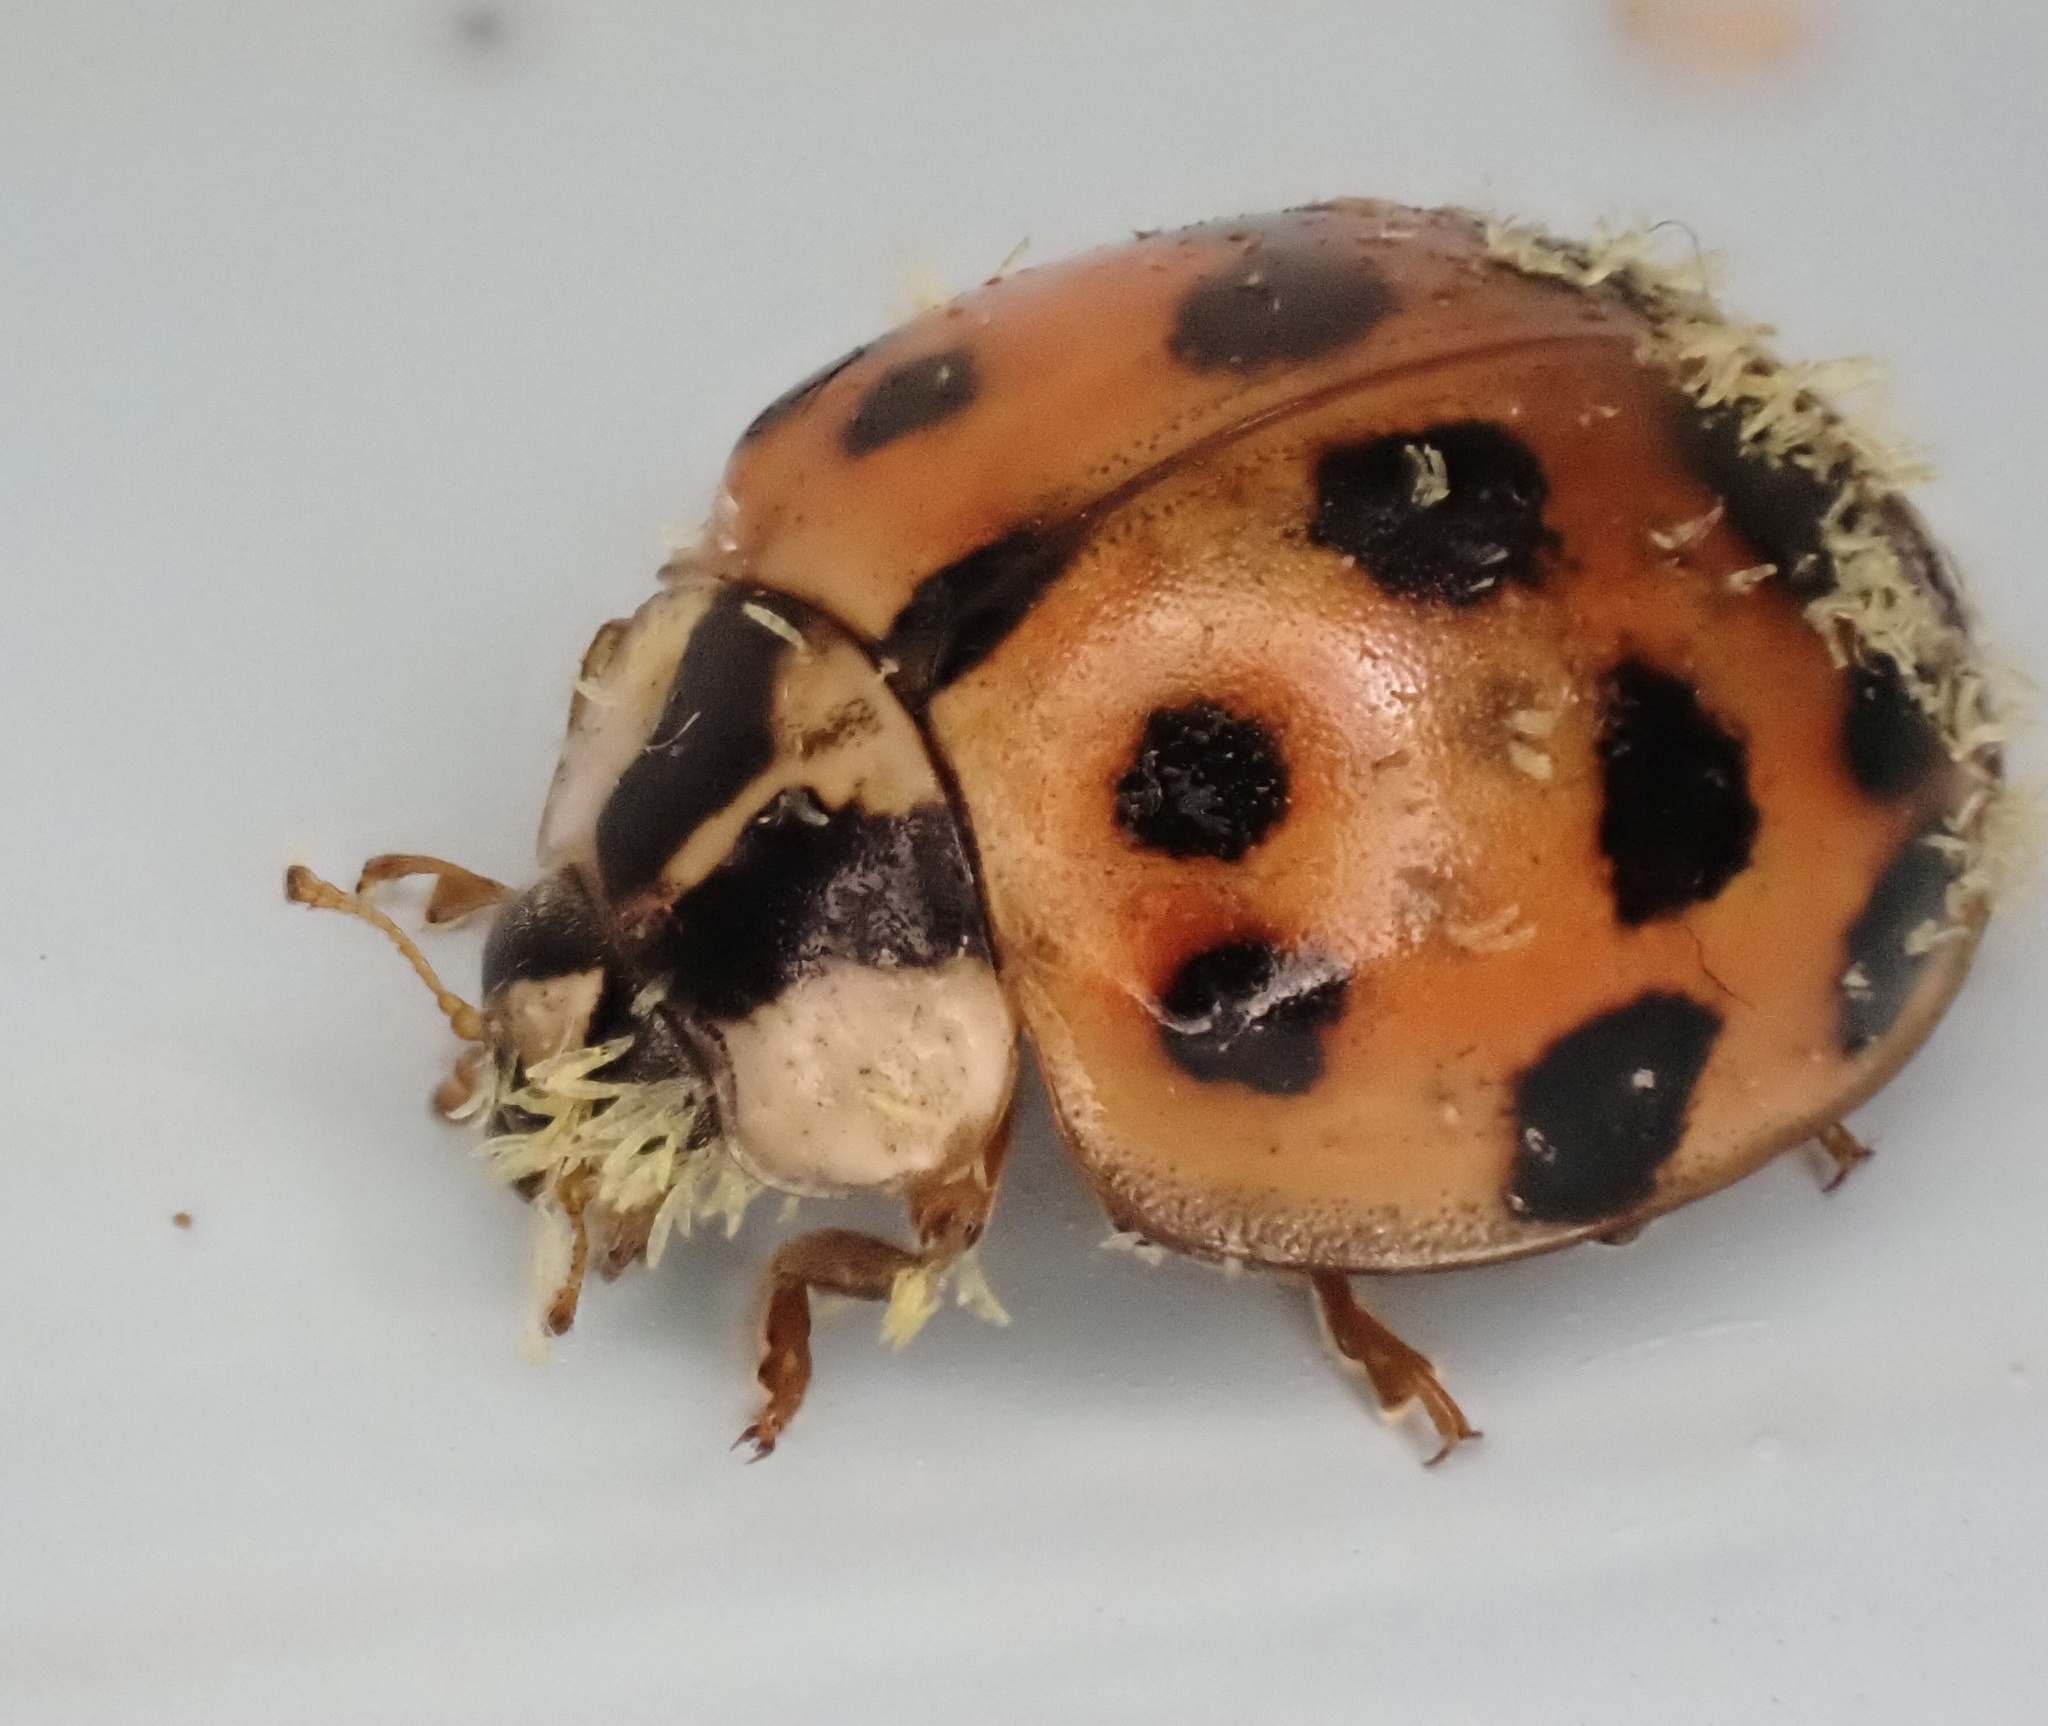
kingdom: Animalia
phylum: Arthropoda
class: Insecta
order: Coleoptera
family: Coccinellidae
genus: Harmonia
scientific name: Harmonia axyridis
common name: Harlequin ladybird
